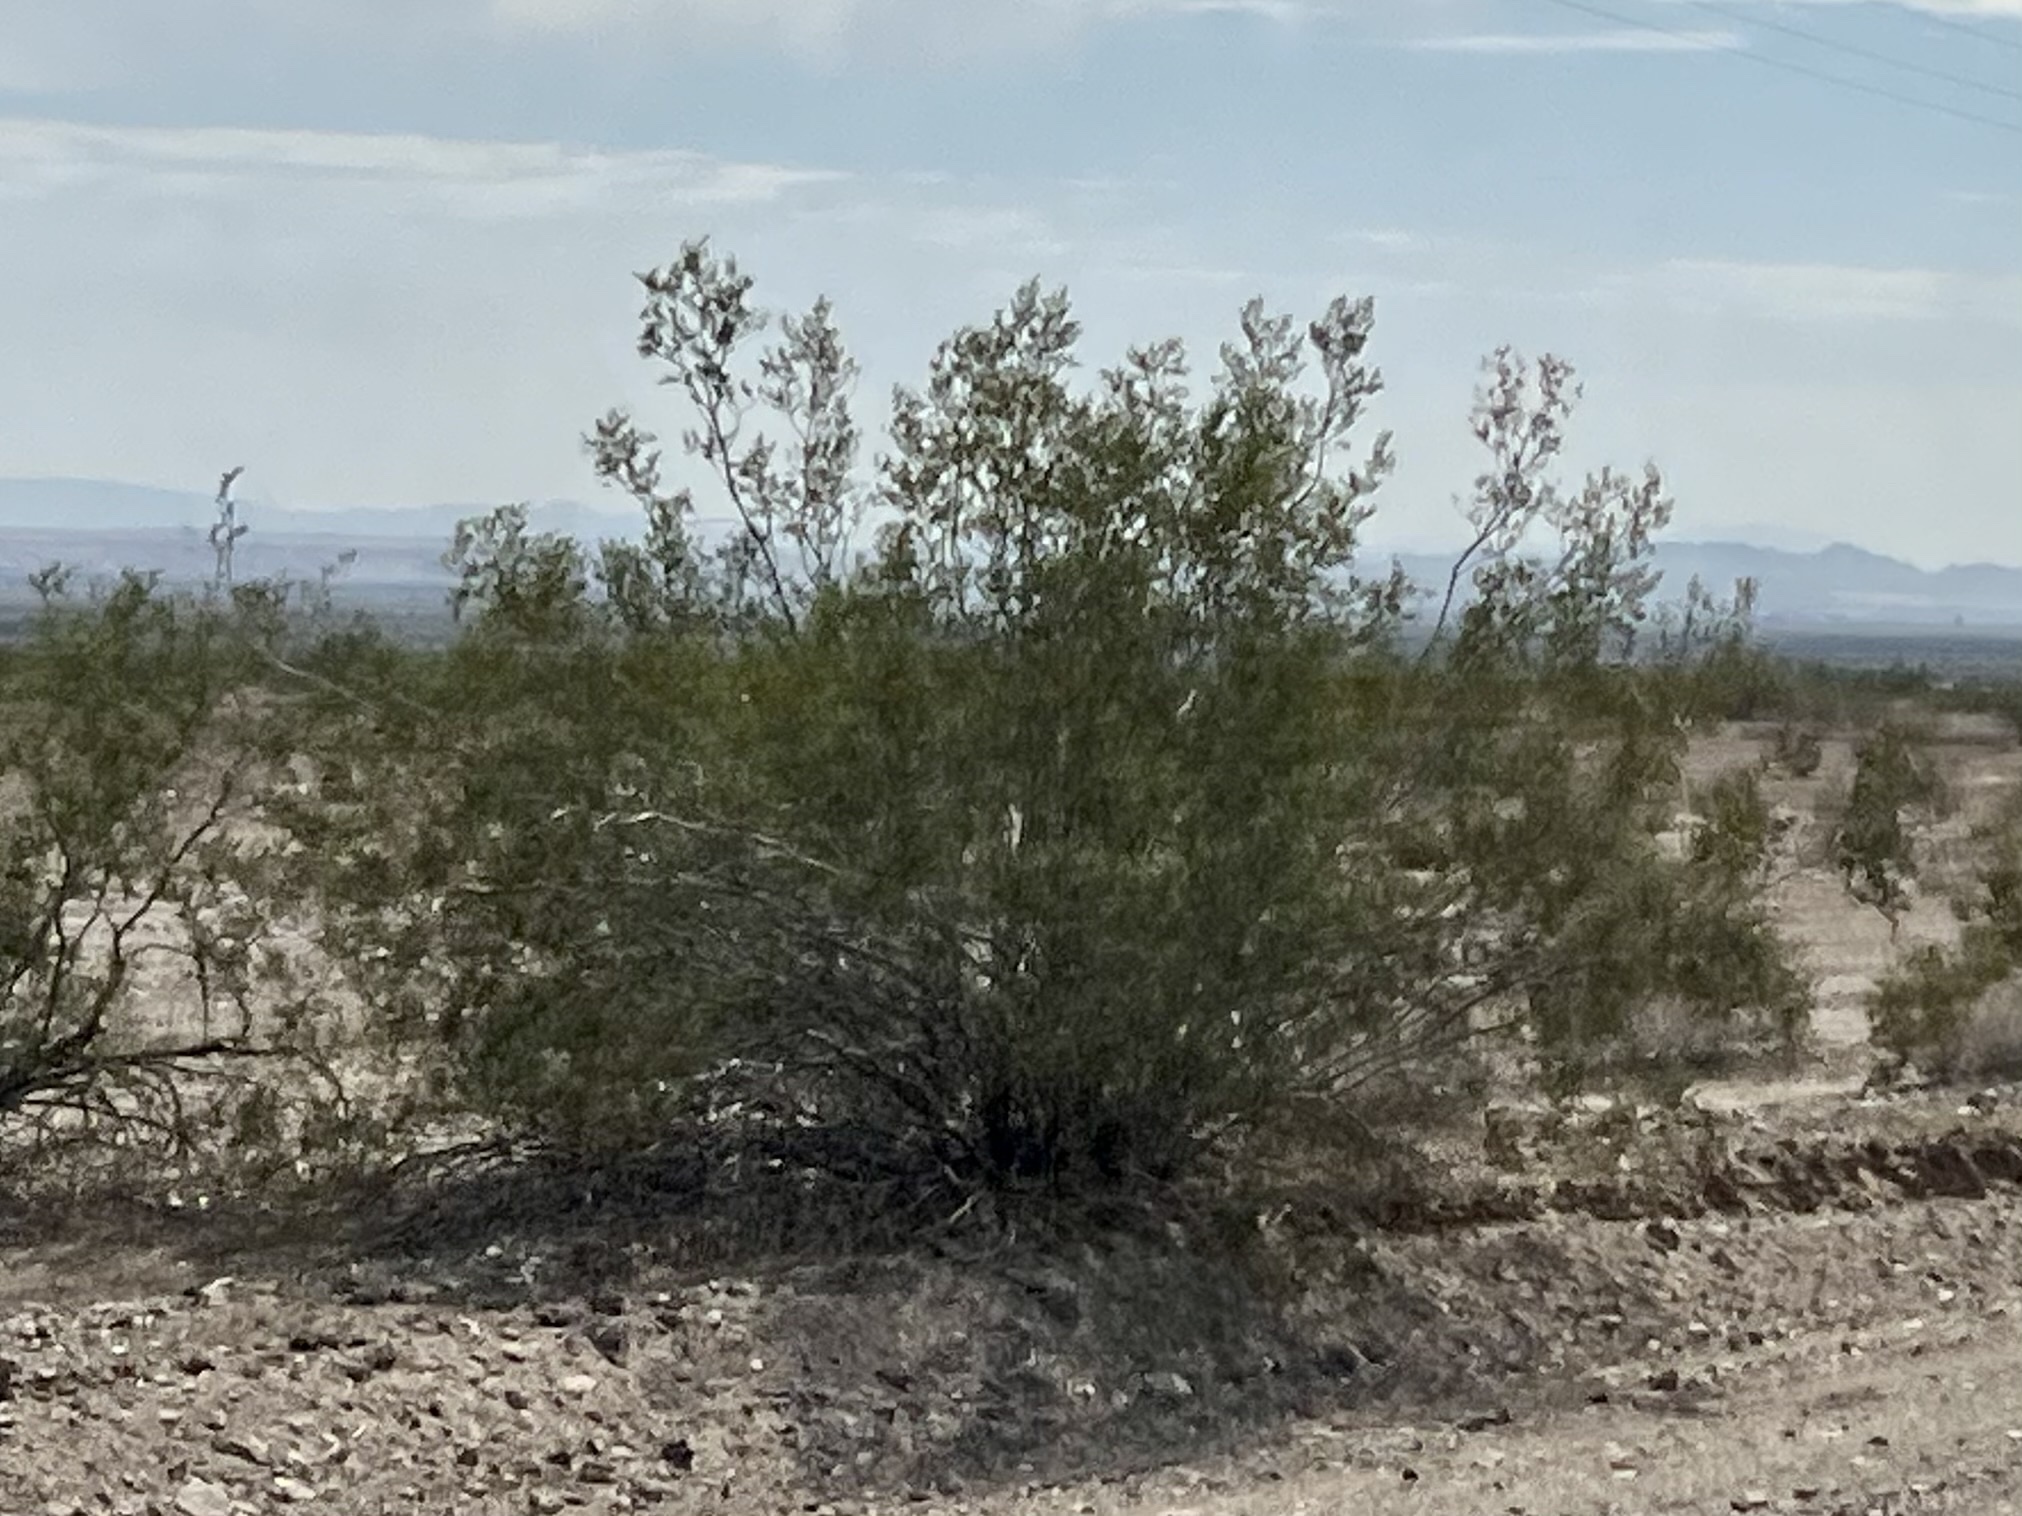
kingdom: Plantae
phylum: Tracheophyta
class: Magnoliopsida
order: Zygophyllales
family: Zygophyllaceae
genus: Larrea
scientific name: Larrea tridentata
